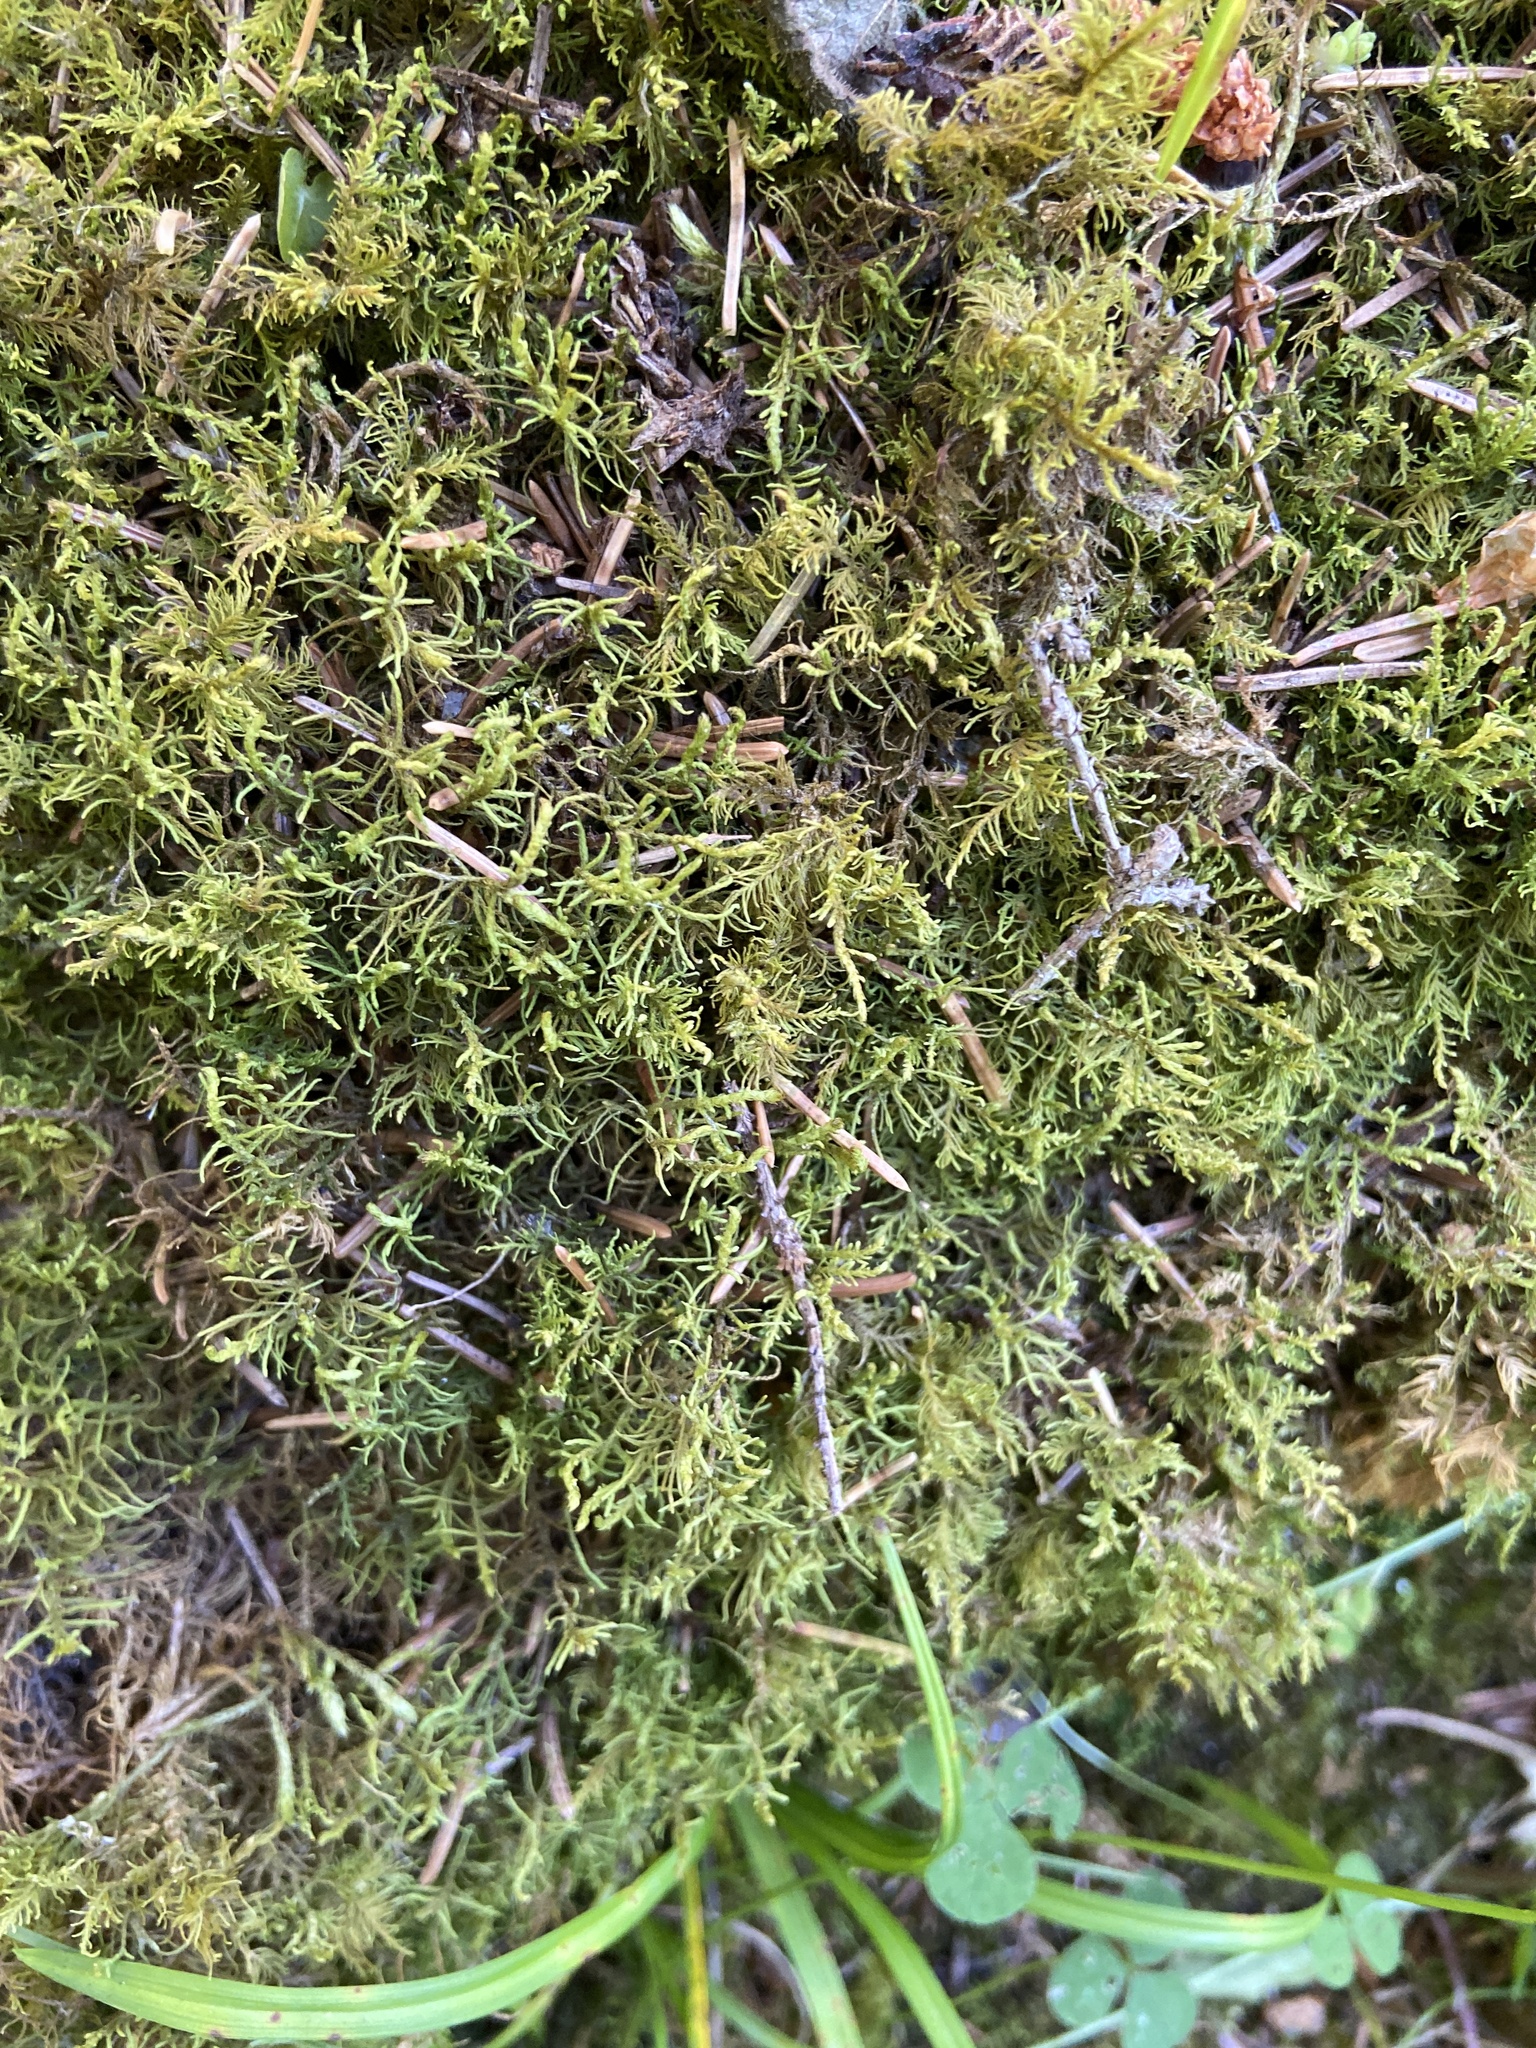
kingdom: Plantae
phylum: Bryophyta
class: Bryopsida
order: Hypnales
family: Thuidiaceae
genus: Abietinella
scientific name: Abietinella abietina
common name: Wiry fern moss
